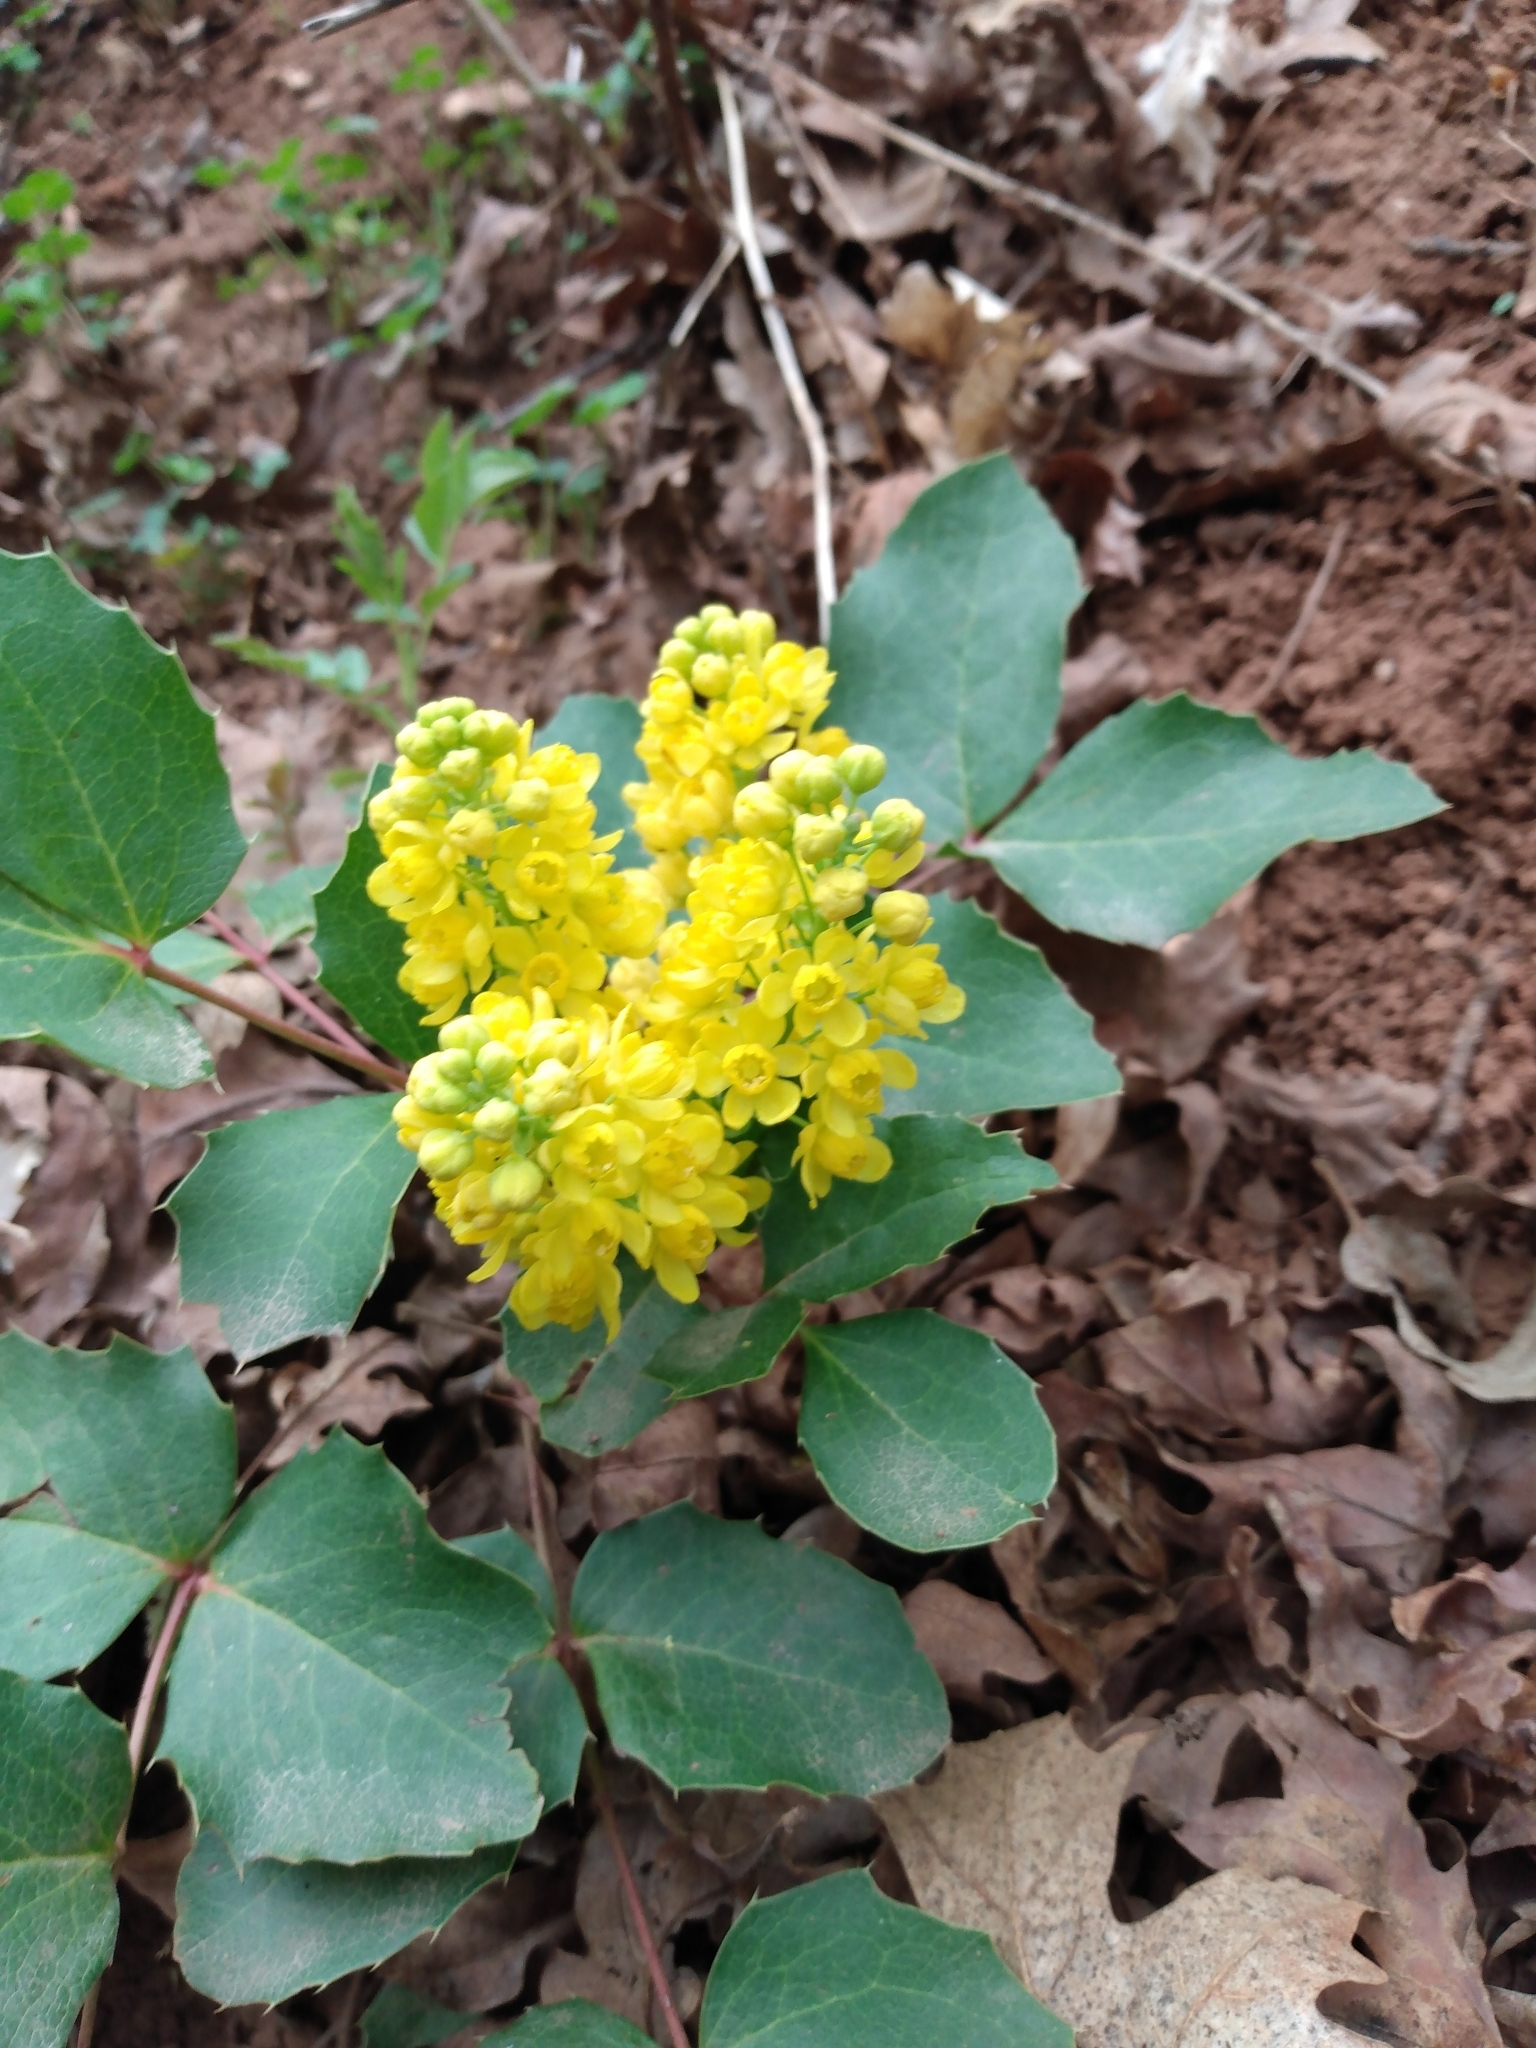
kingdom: Plantae
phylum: Tracheophyta
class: Magnoliopsida
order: Ranunculales
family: Berberidaceae
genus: Mahonia
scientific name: Mahonia repens
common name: Creeping oregon-grape
